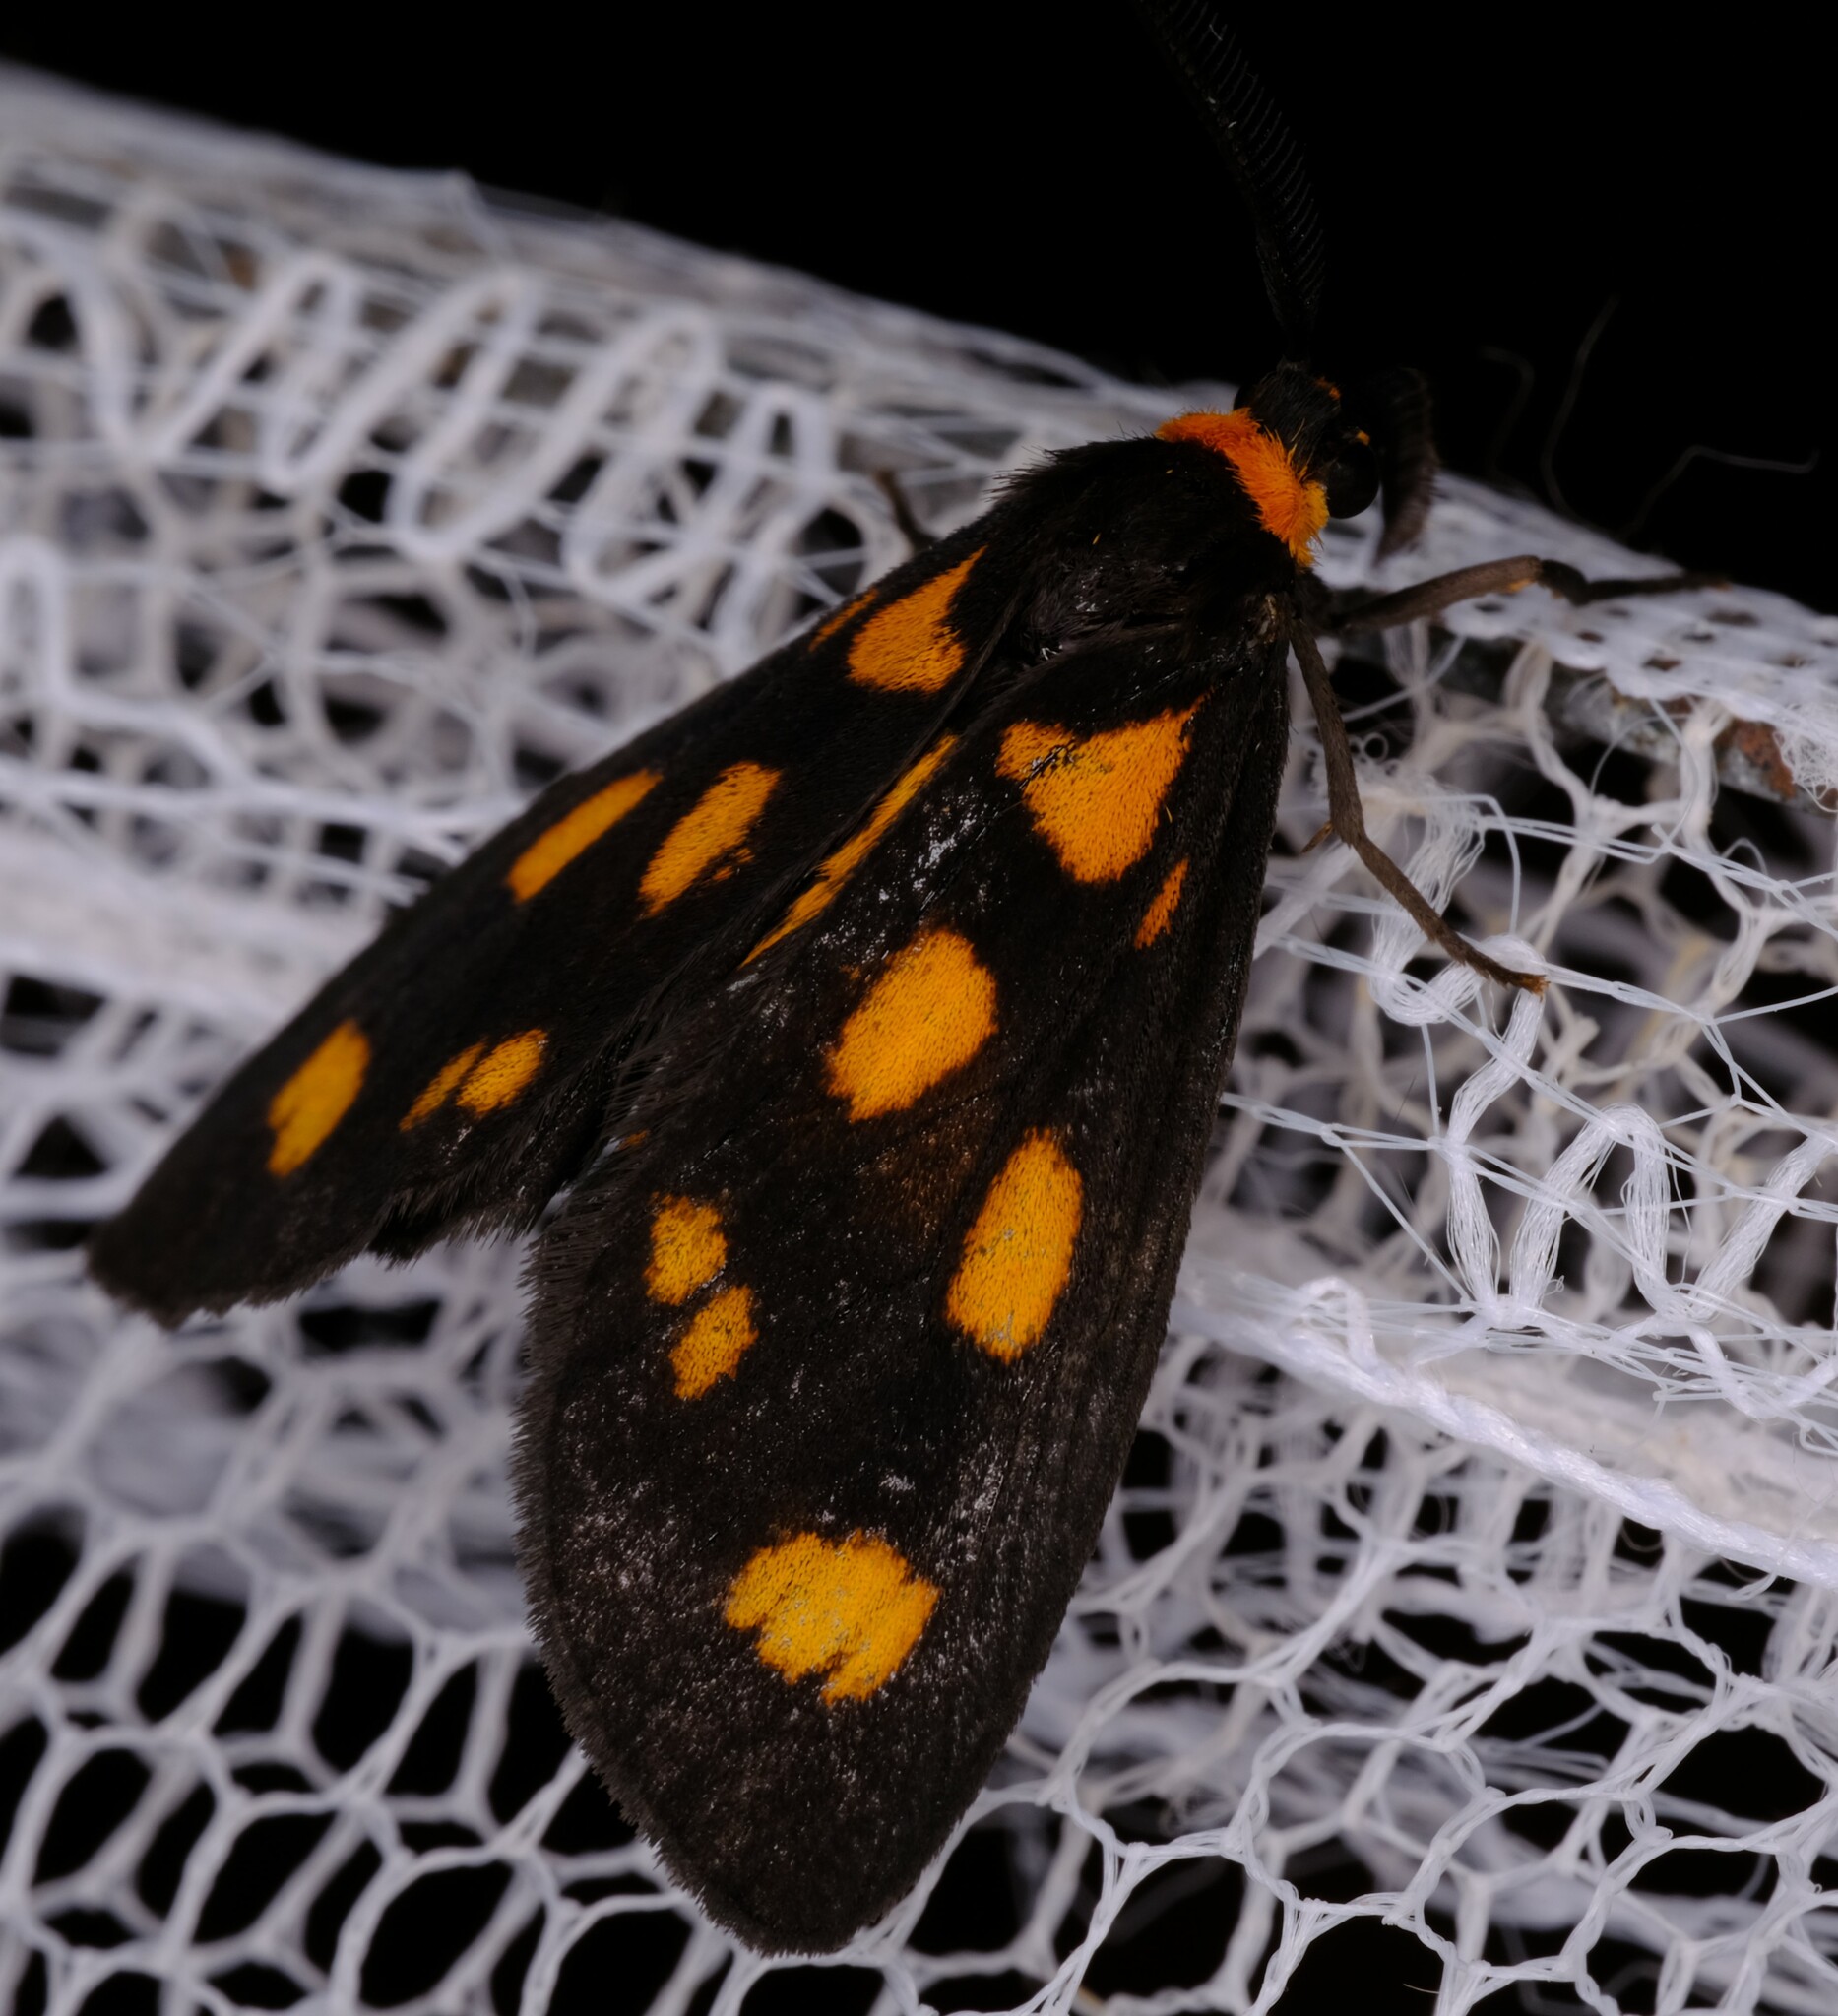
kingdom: Animalia
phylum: Arthropoda
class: Insecta
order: Lepidoptera
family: Erebidae
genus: Asura
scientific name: Asura cervicalis
